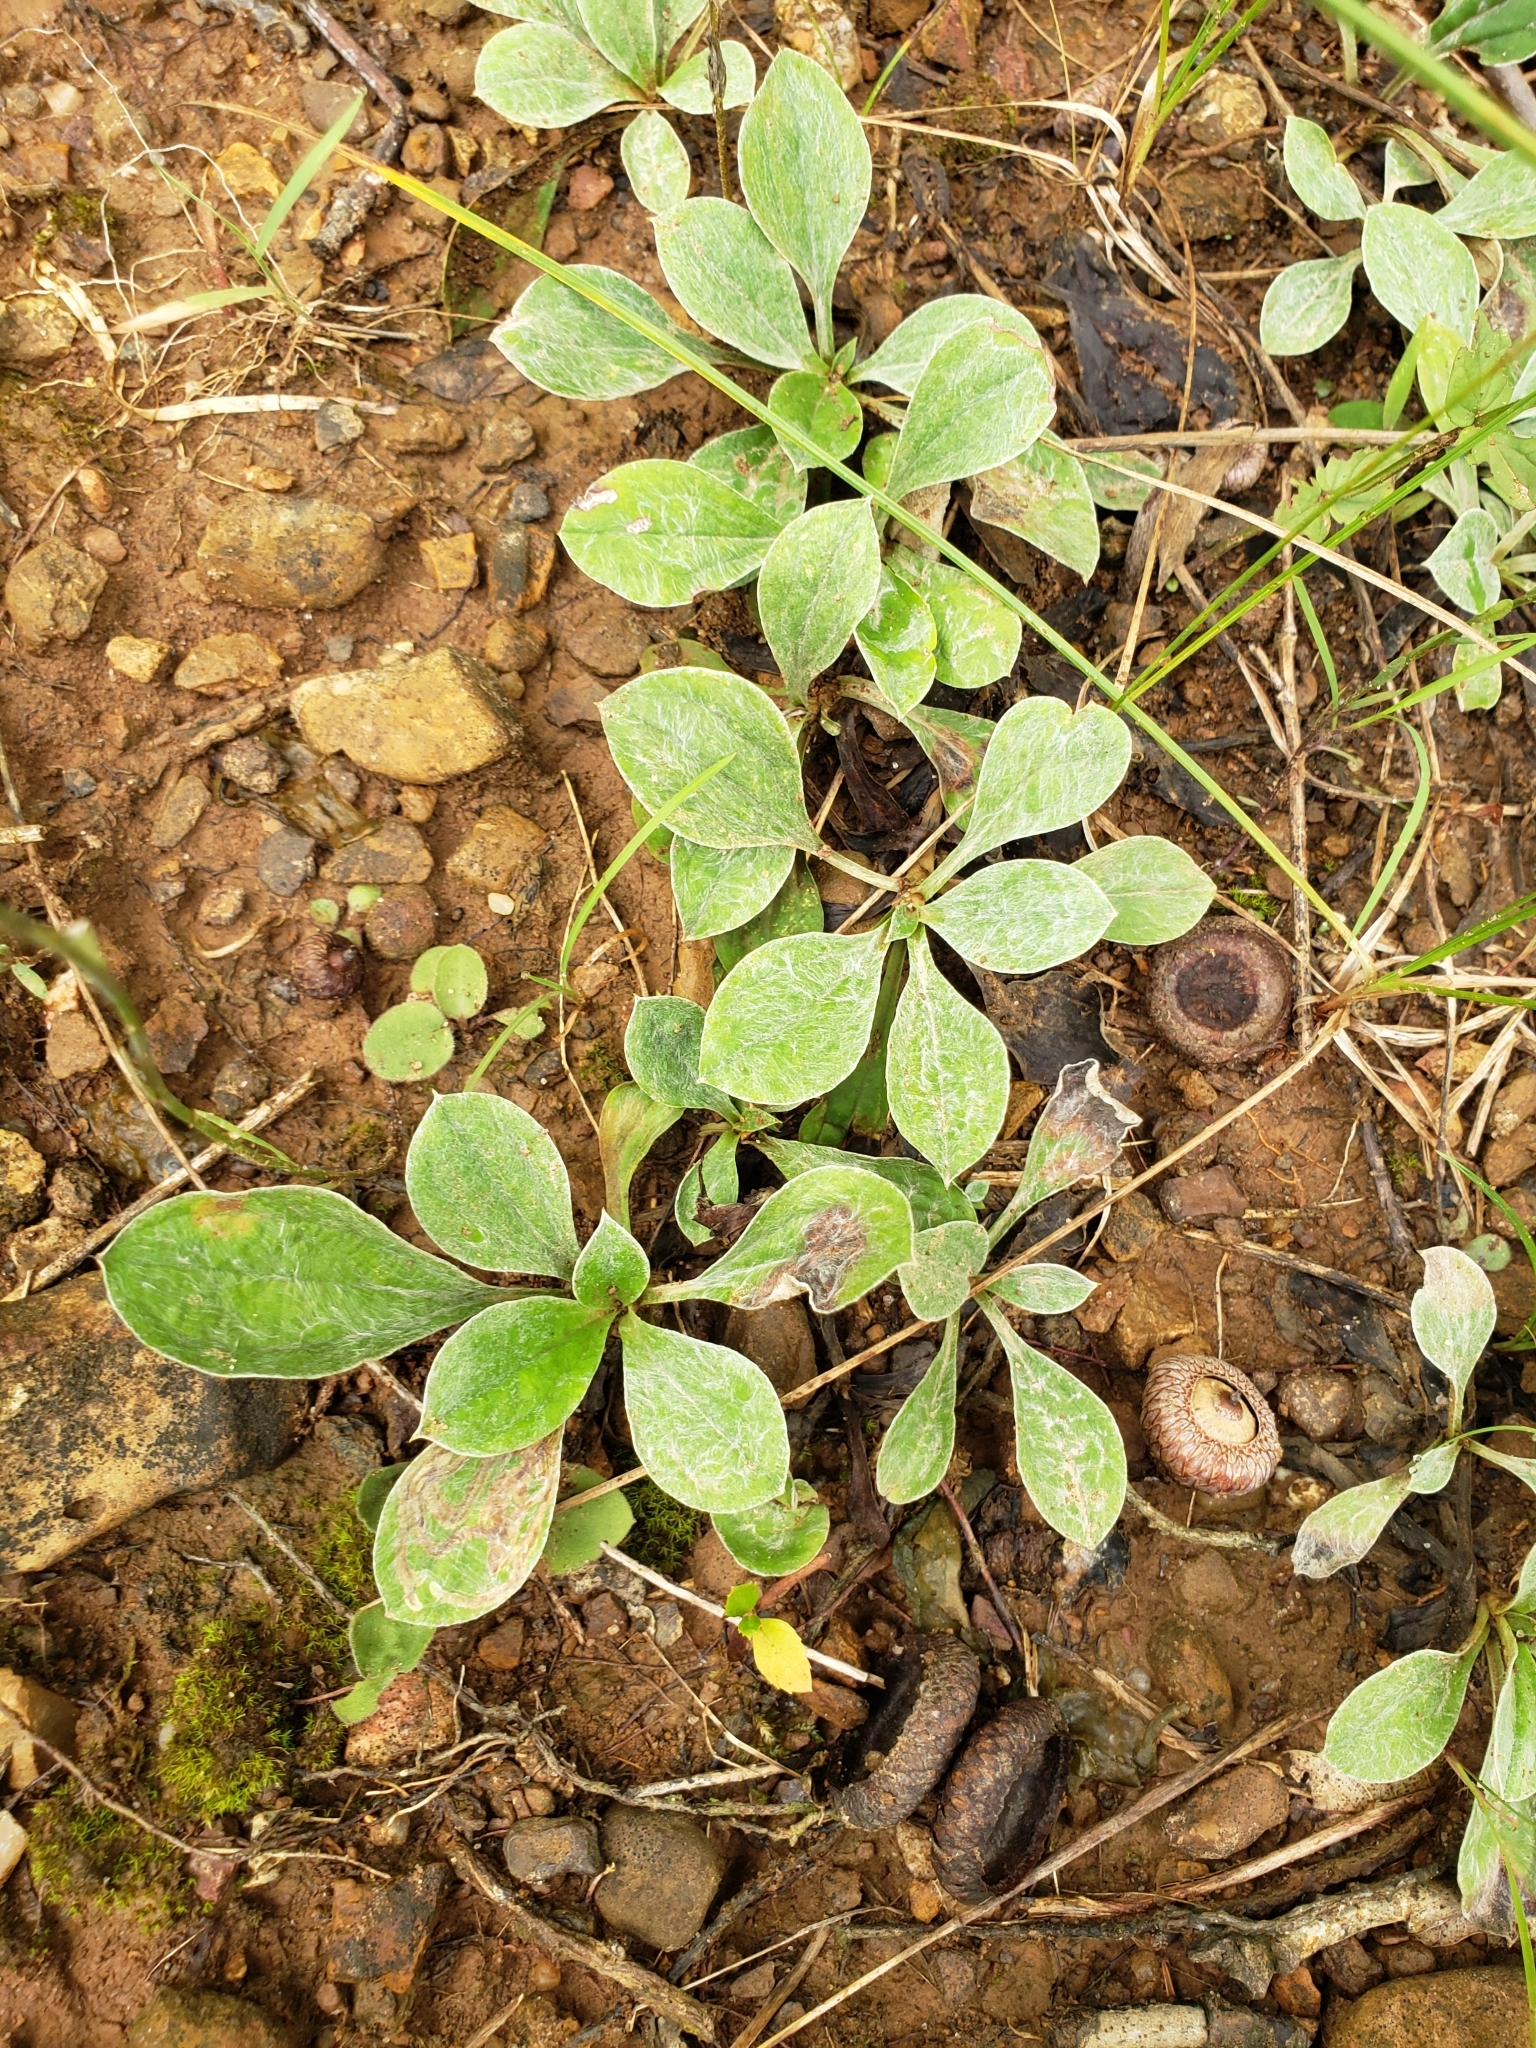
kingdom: Plantae
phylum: Tracheophyta
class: Magnoliopsida
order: Asterales
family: Asteraceae
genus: Antennaria
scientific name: Antennaria parlinii
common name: Parlin's pussytoes
